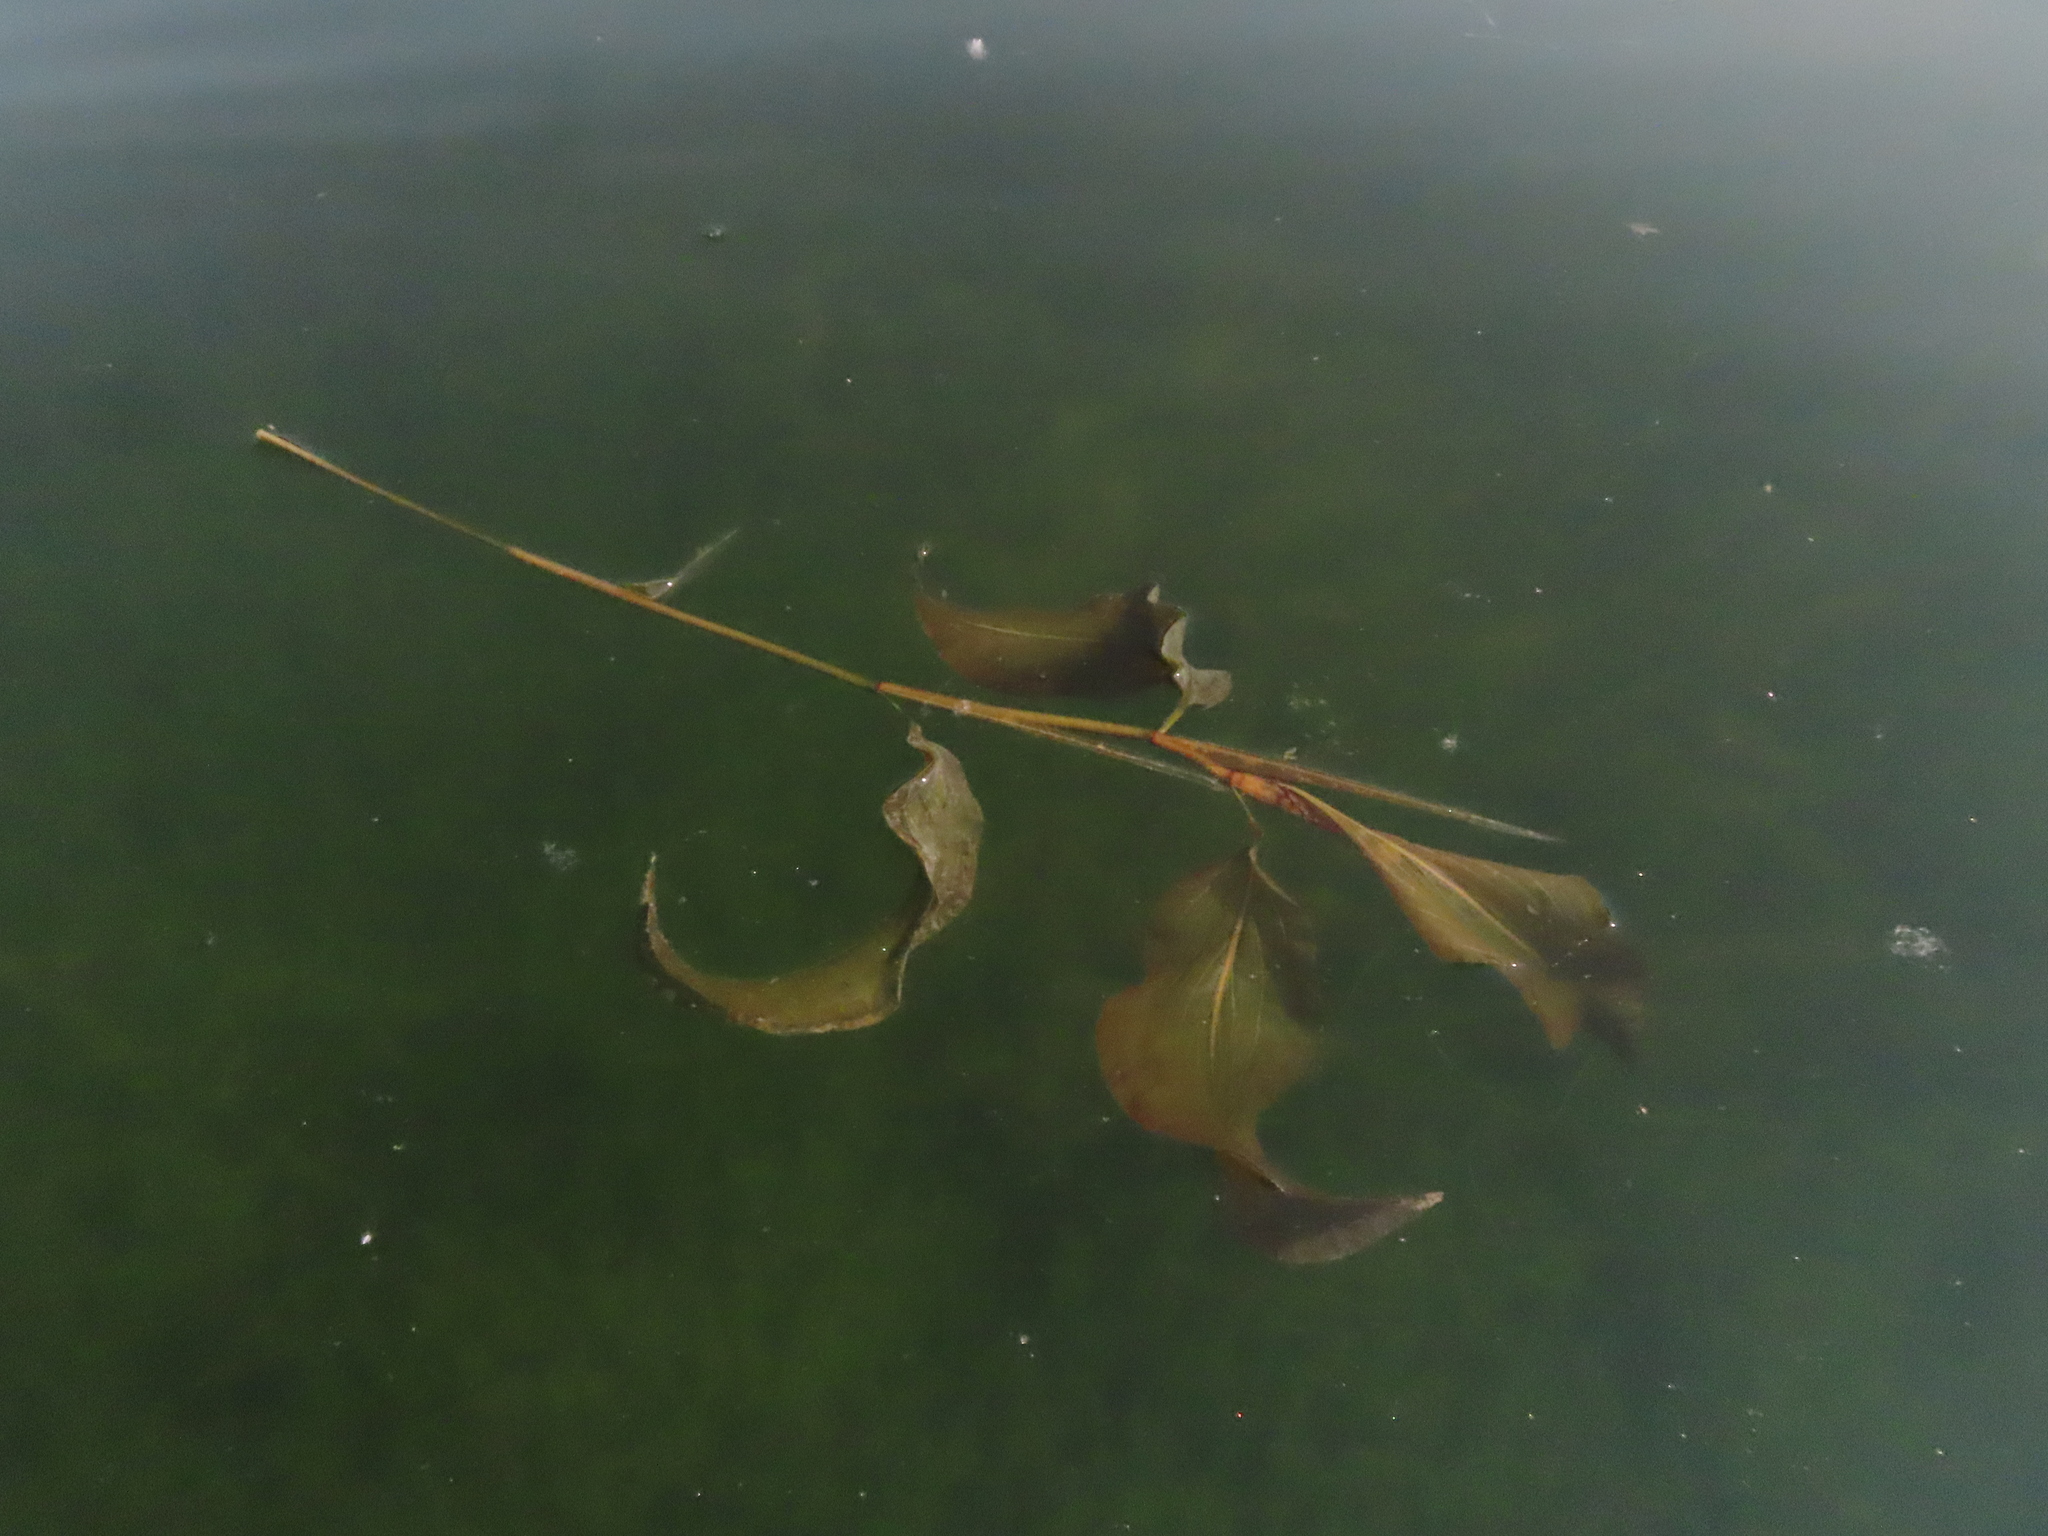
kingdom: Plantae
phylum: Tracheophyta
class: Liliopsida
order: Alismatales
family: Potamogetonaceae
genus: Potamogeton
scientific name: Potamogeton amplifolius
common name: Broad-leaved pondweed
